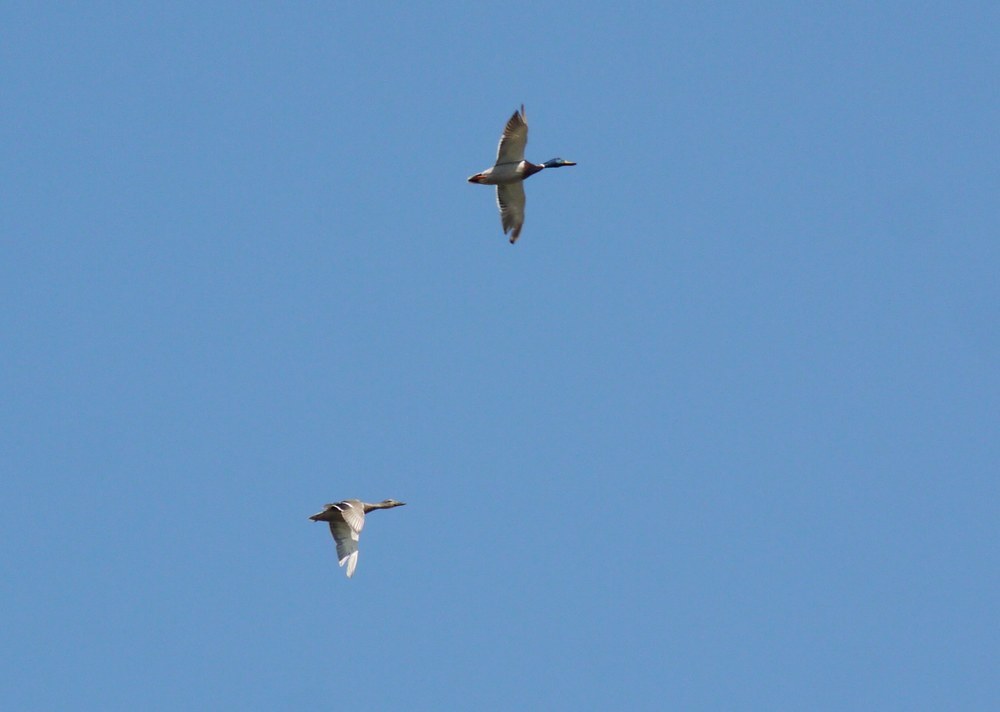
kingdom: Animalia
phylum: Chordata
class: Aves
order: Anseriformes
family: Anatidae
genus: Anas
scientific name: Anas platyrhynchos
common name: Mallard
